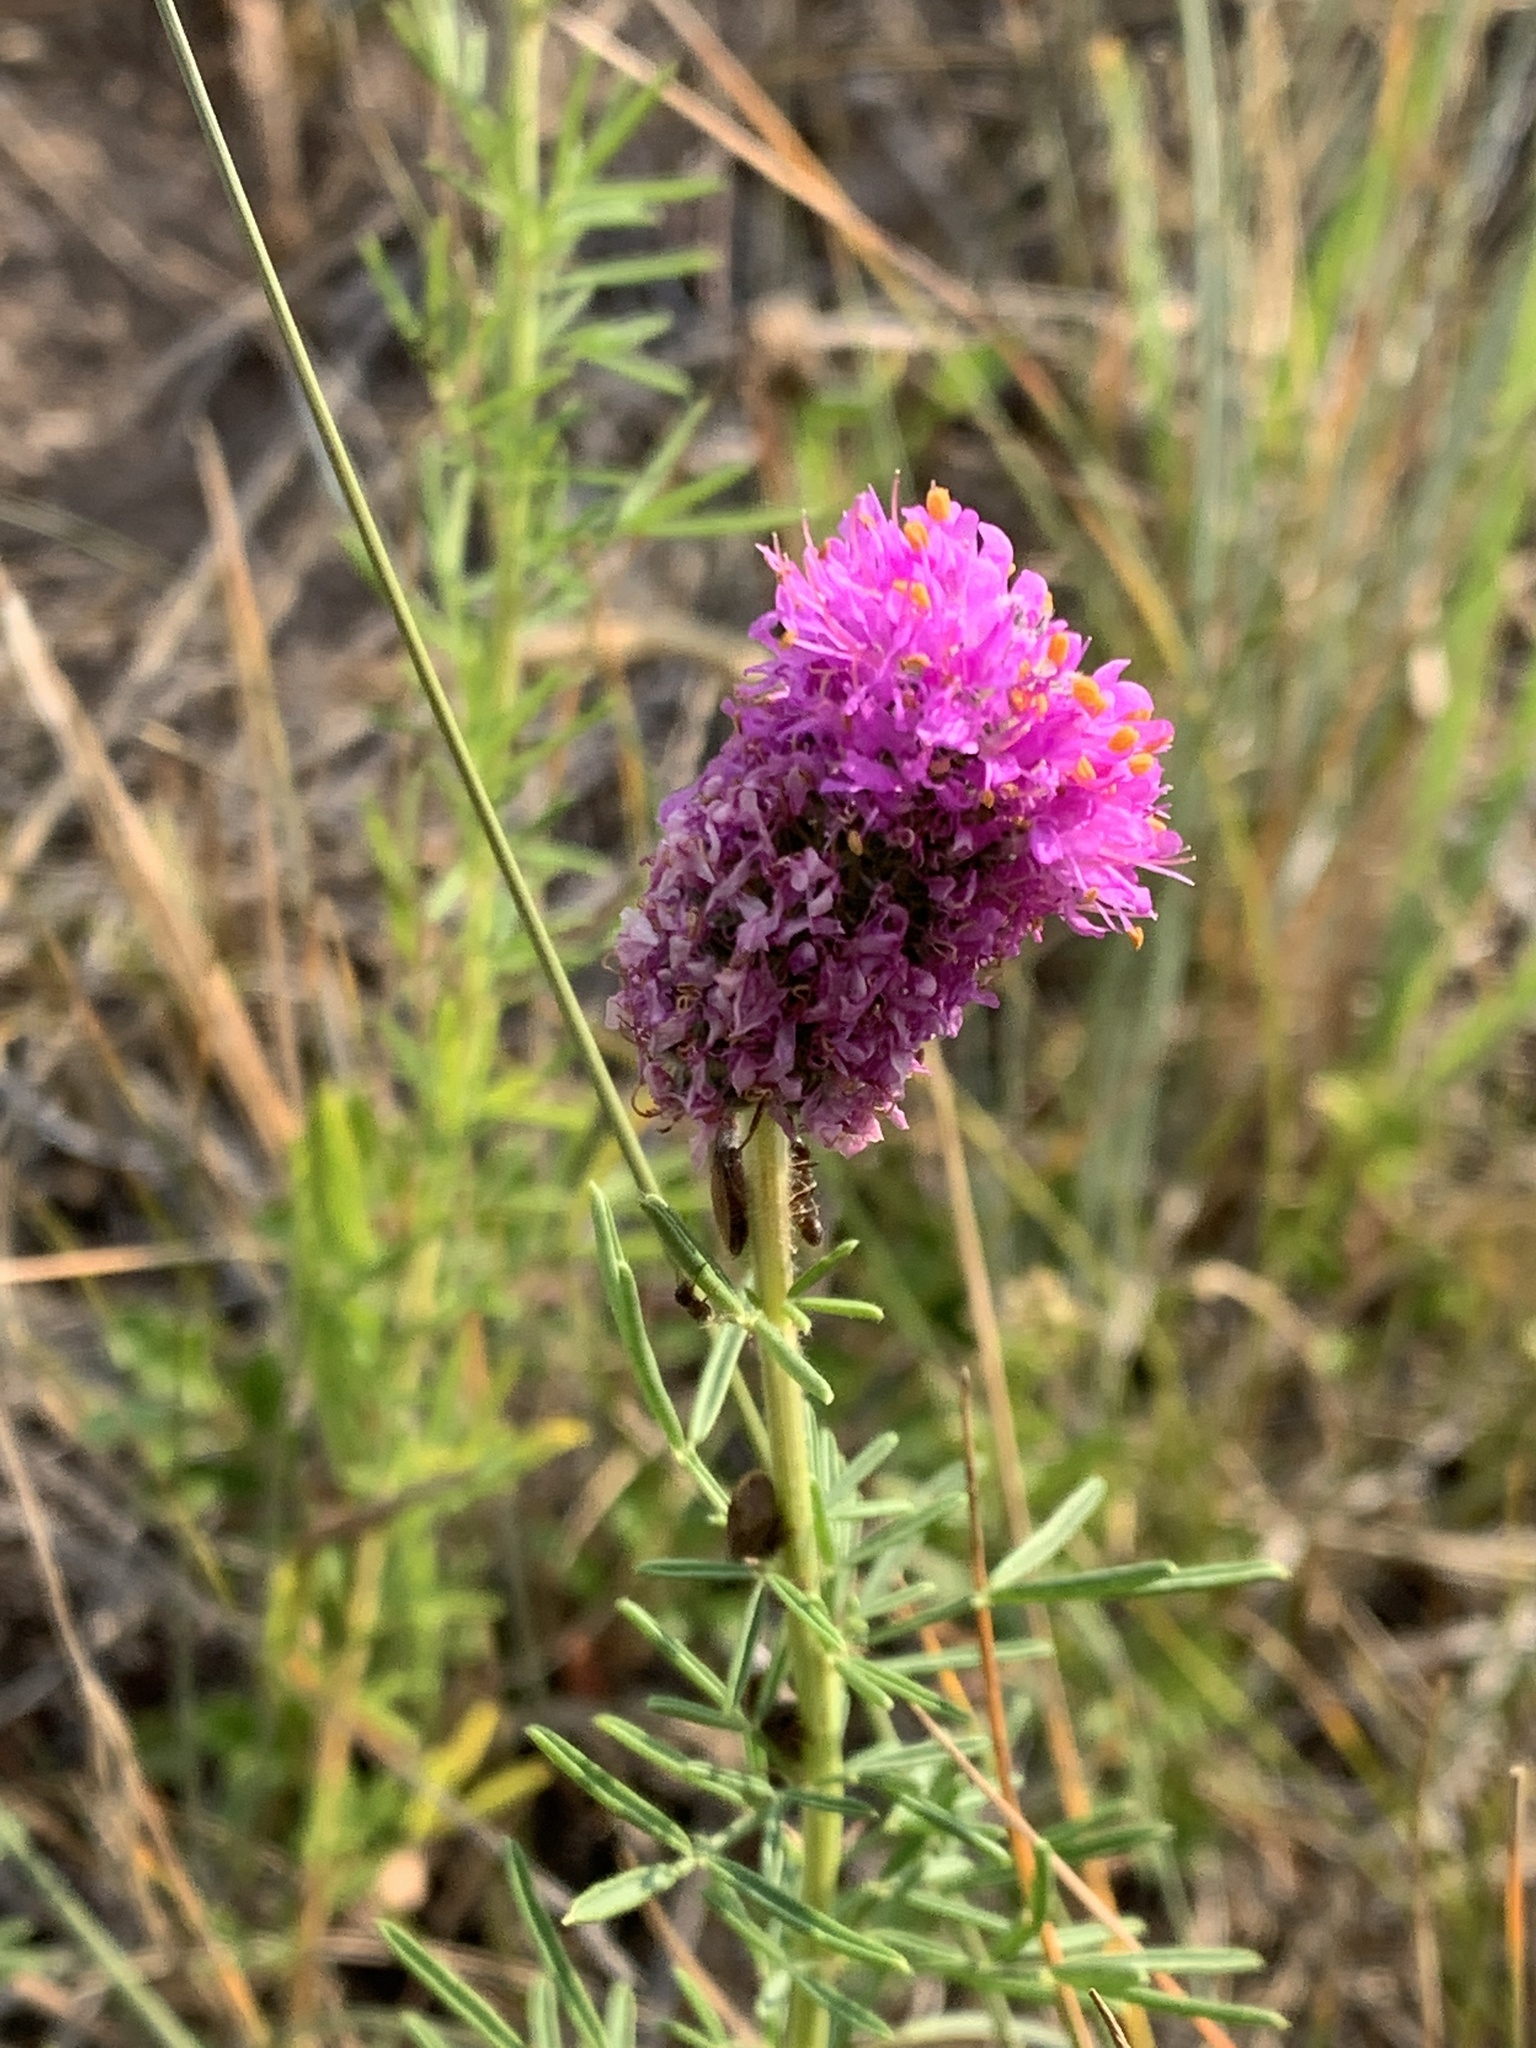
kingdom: Plantae
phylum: Tracheophyta
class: Magnoliopsida
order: Fabales
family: Fabaceae
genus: Dalea
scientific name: Dalea purpurea
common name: Purple prairie-clover
